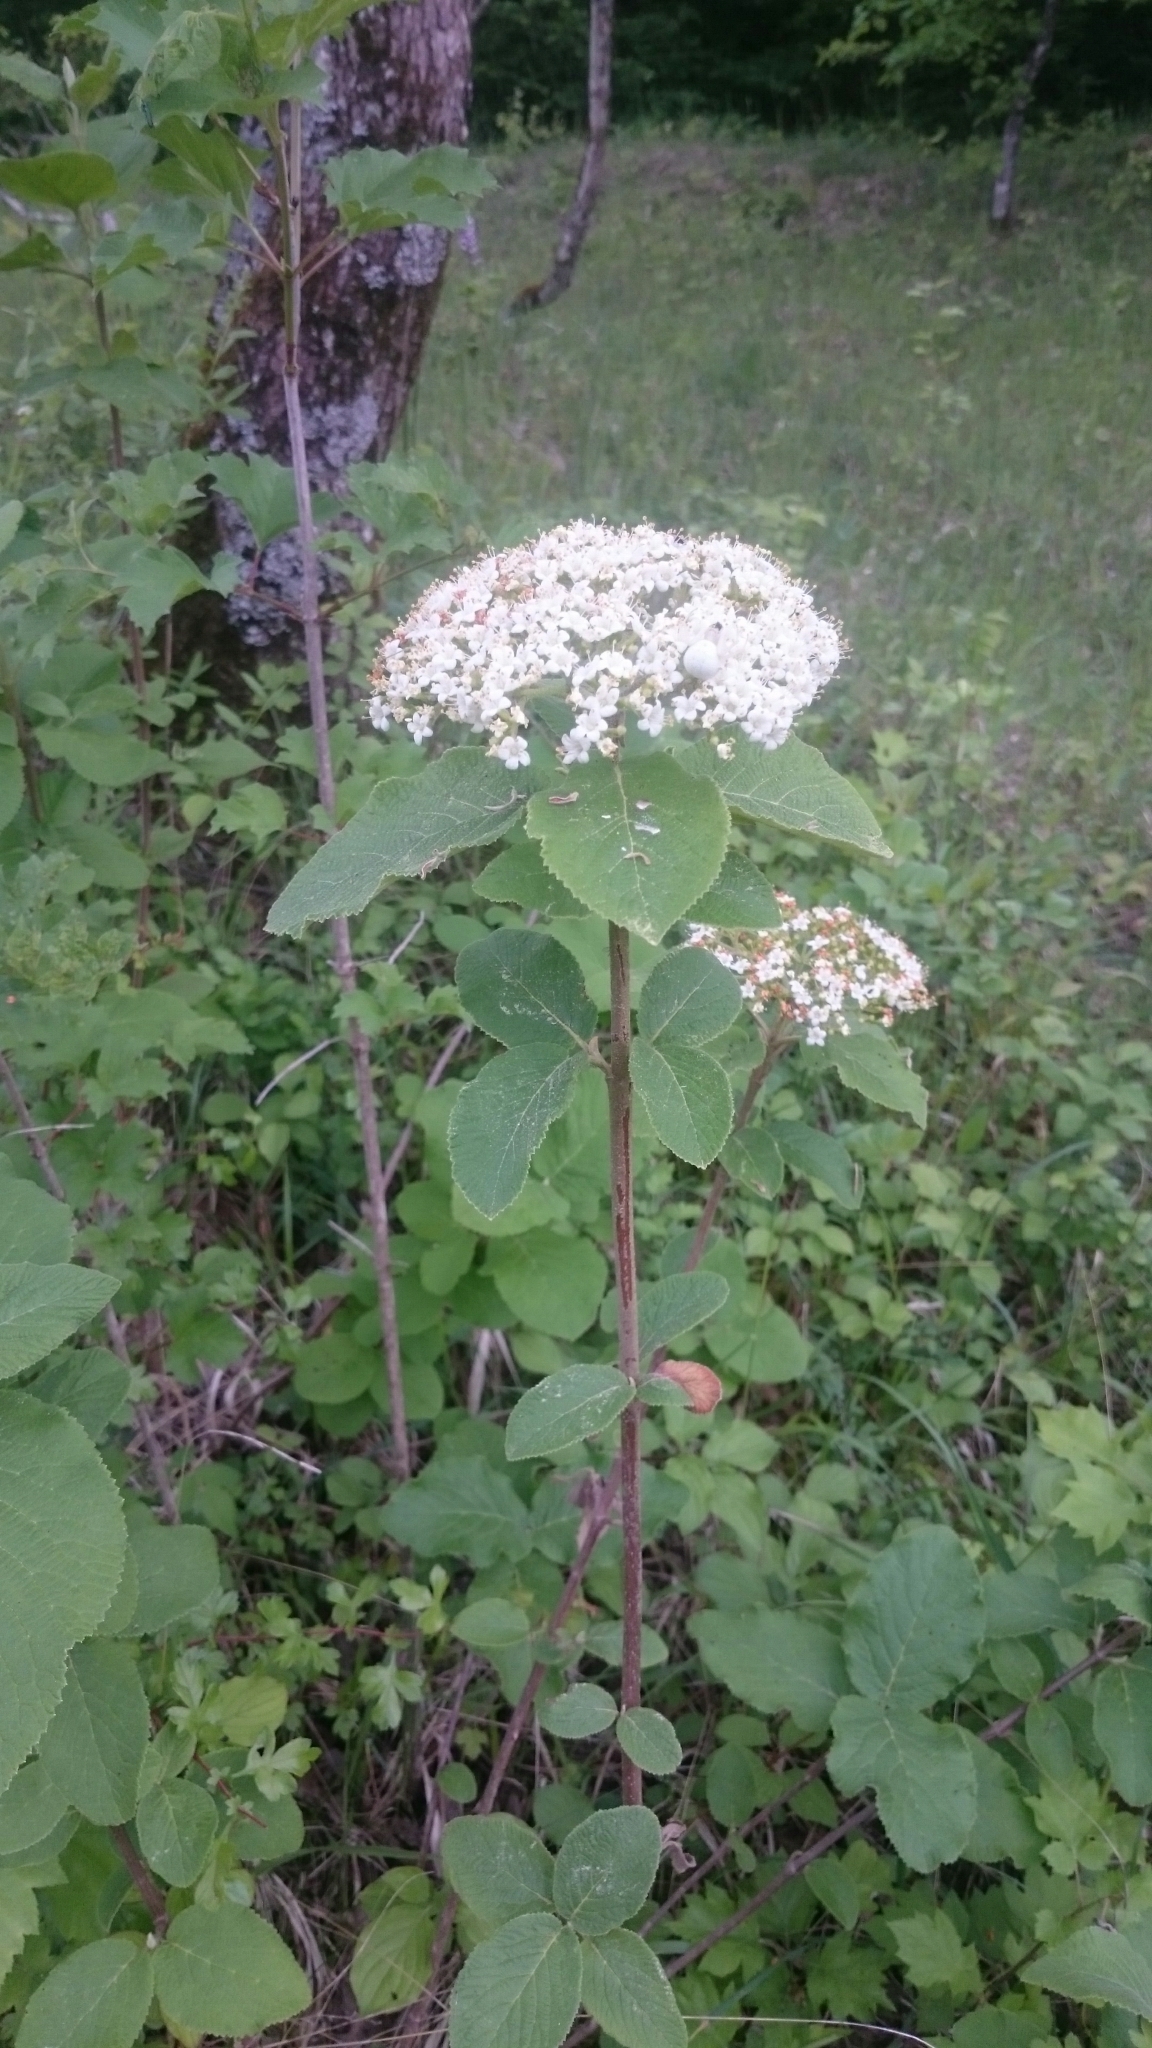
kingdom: Plantae
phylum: Tracheophyta
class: Magnoliopsida
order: Dipsacales
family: Viburnaceae
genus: Viburnum
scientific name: Viburnum lantana
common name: Wayfaring tree
